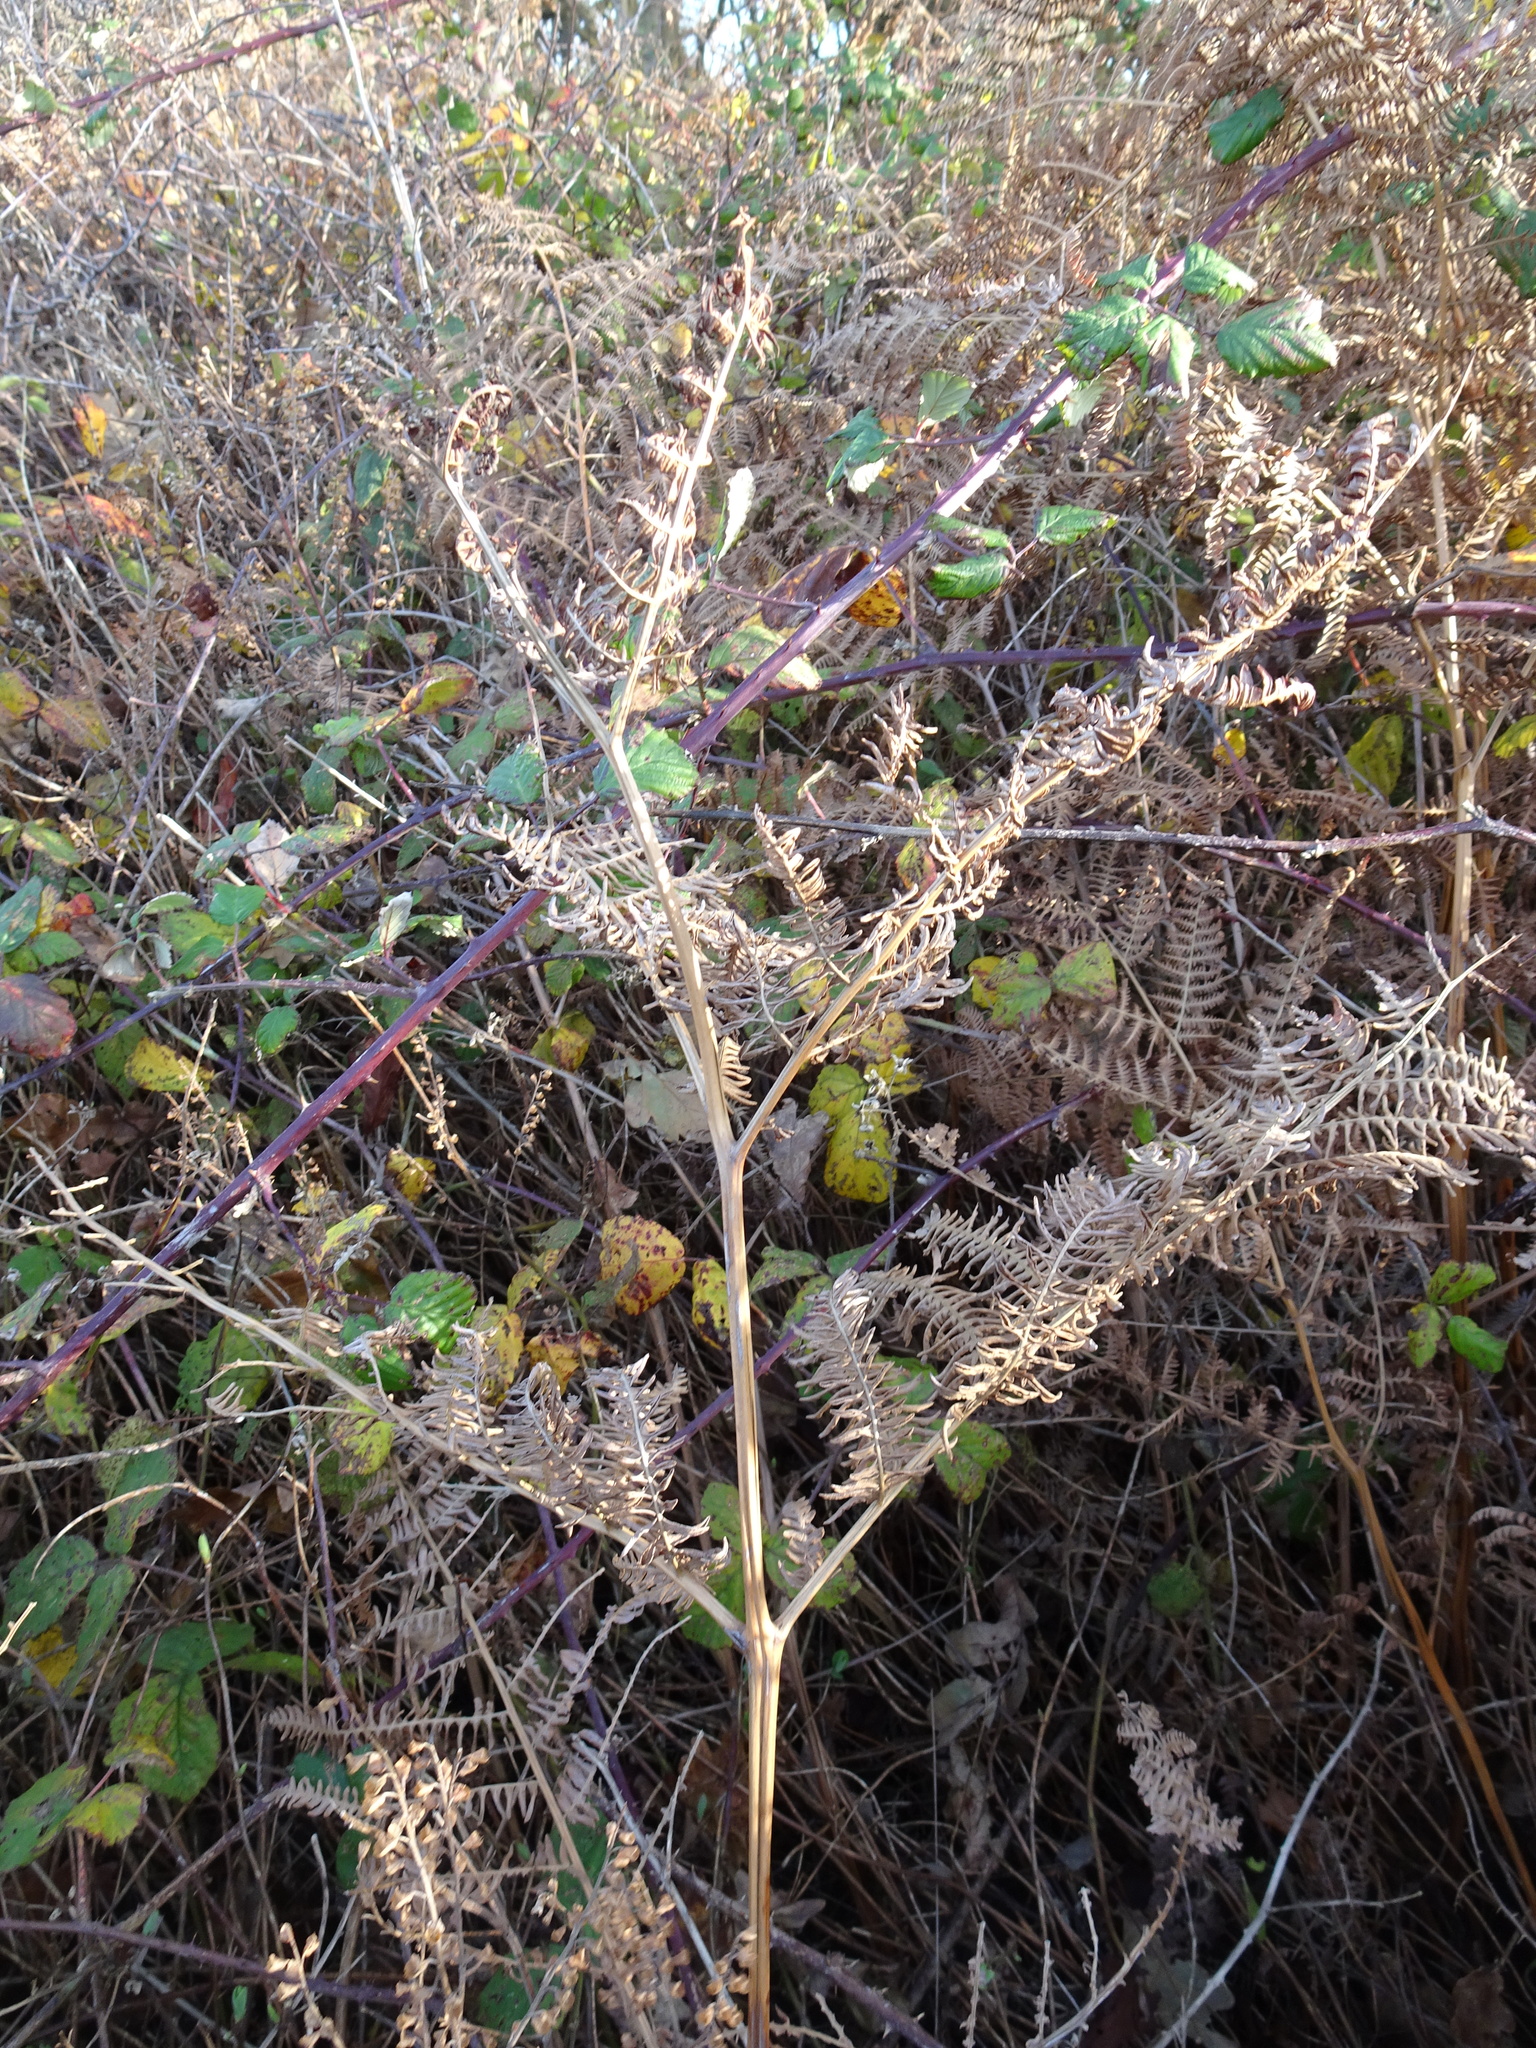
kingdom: Plantae
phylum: Tracheophyta
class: Polypodiopsida
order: Polypodiales
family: Dennstaedtiaceae
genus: Pteridium
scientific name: Pteridium aquilinum
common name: Bracken
